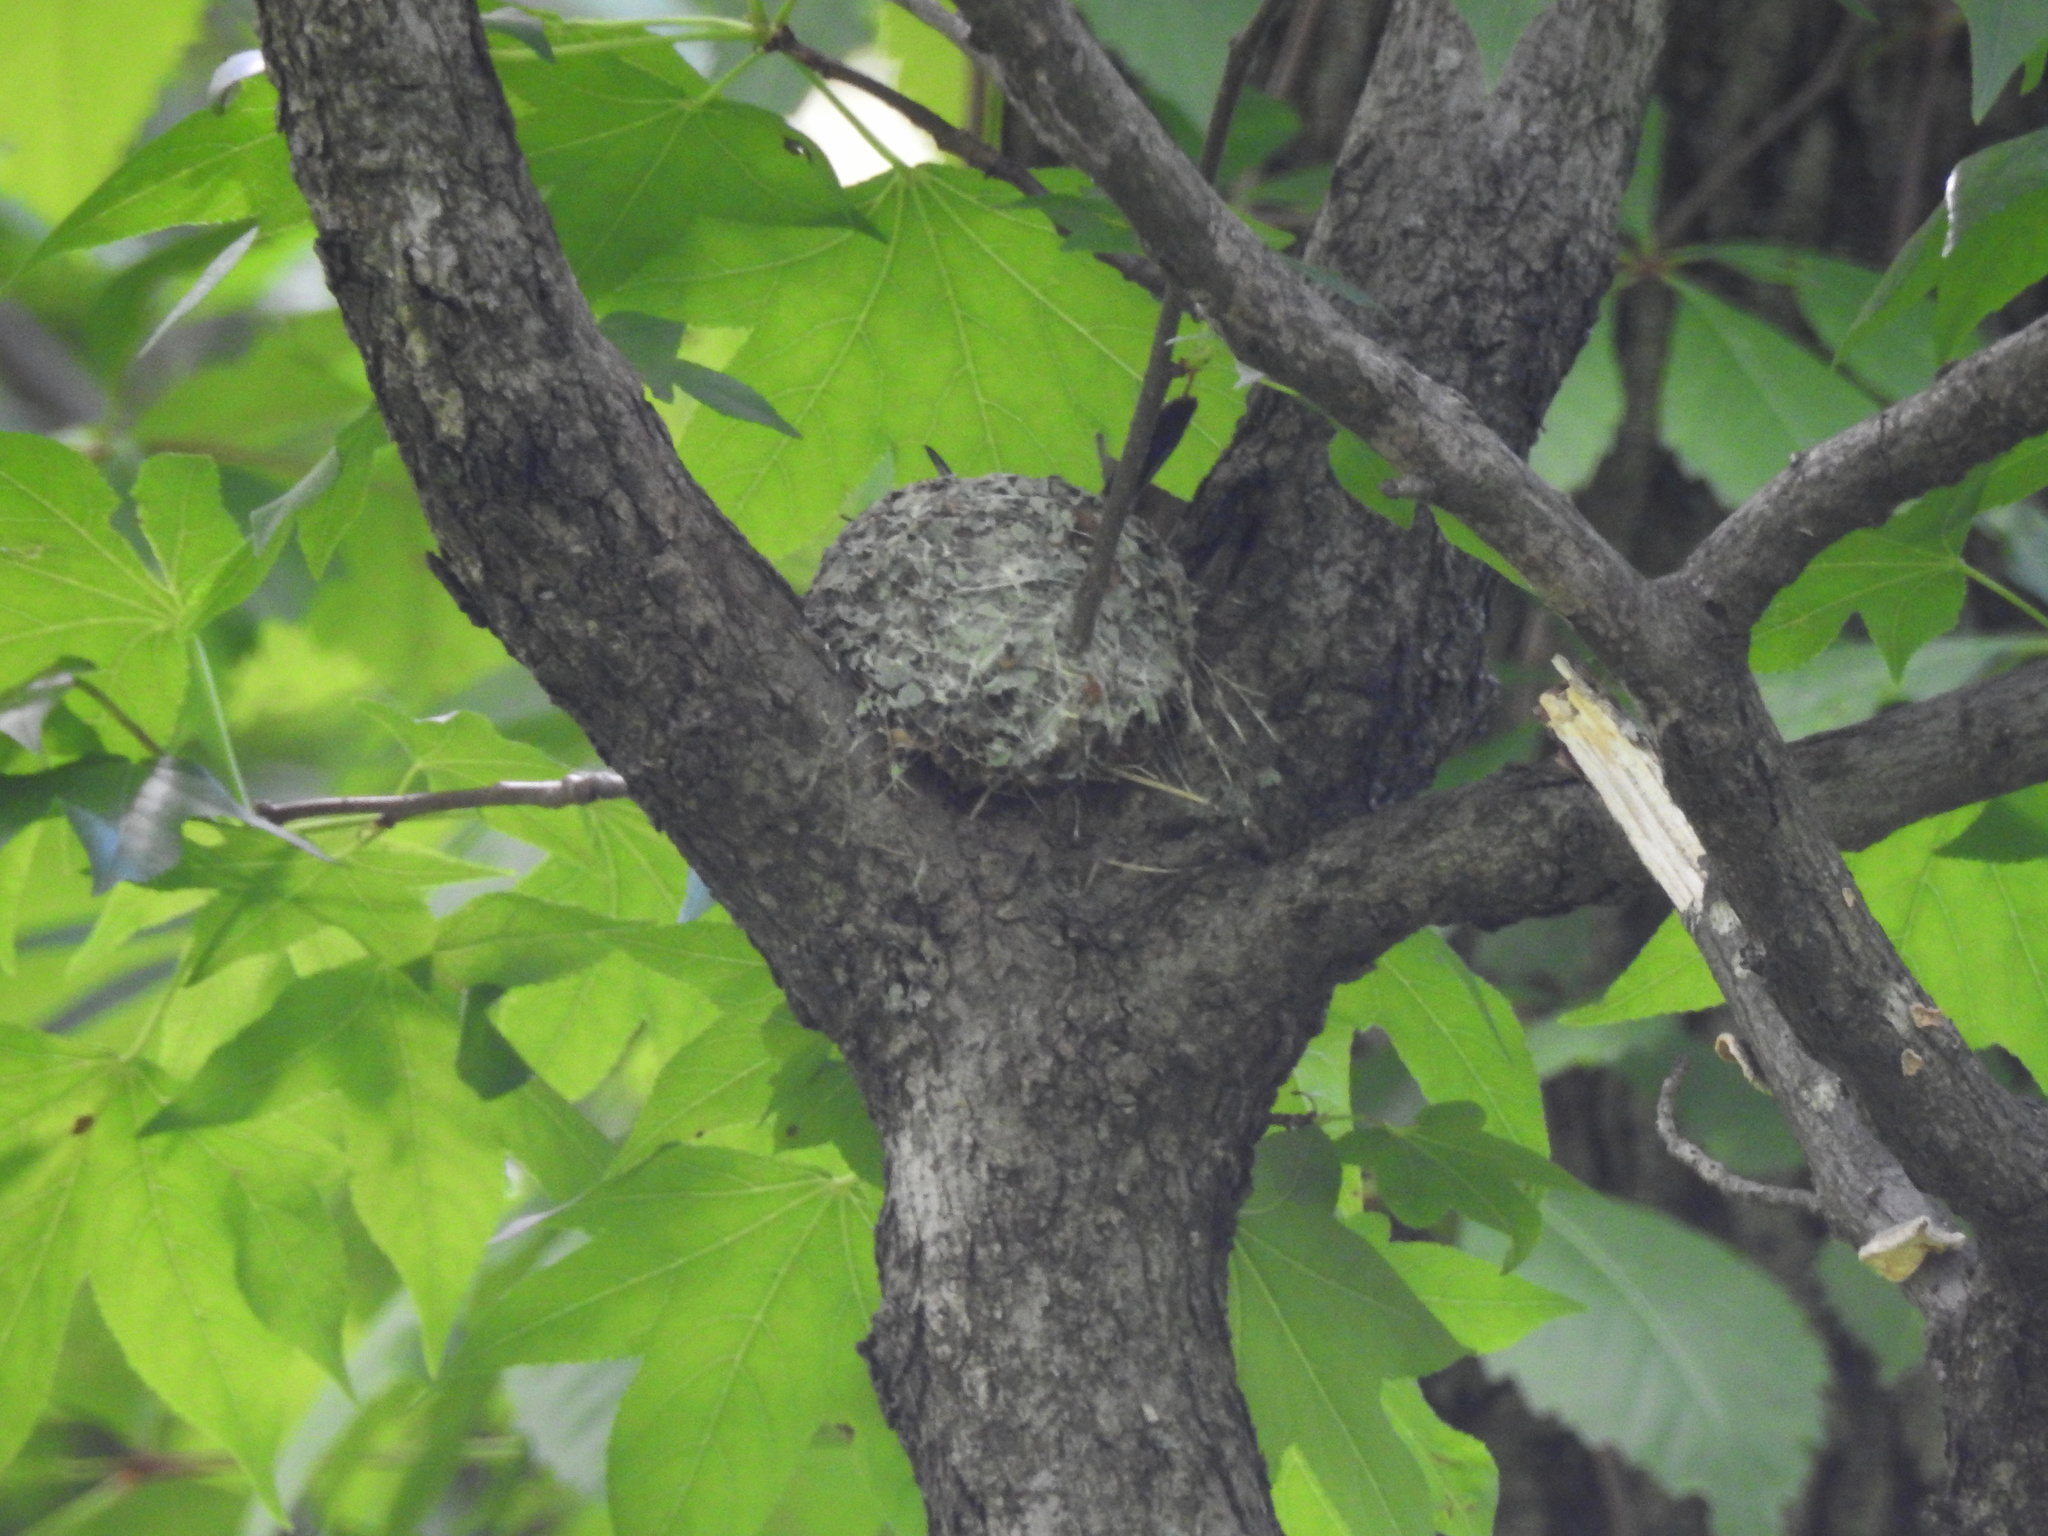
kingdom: Animalia
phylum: Chordata
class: Aves
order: Passeriformes
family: Polioptilidae
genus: Polioptila
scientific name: Polioptila caerulea
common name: Blue-gray gnatcatcher
